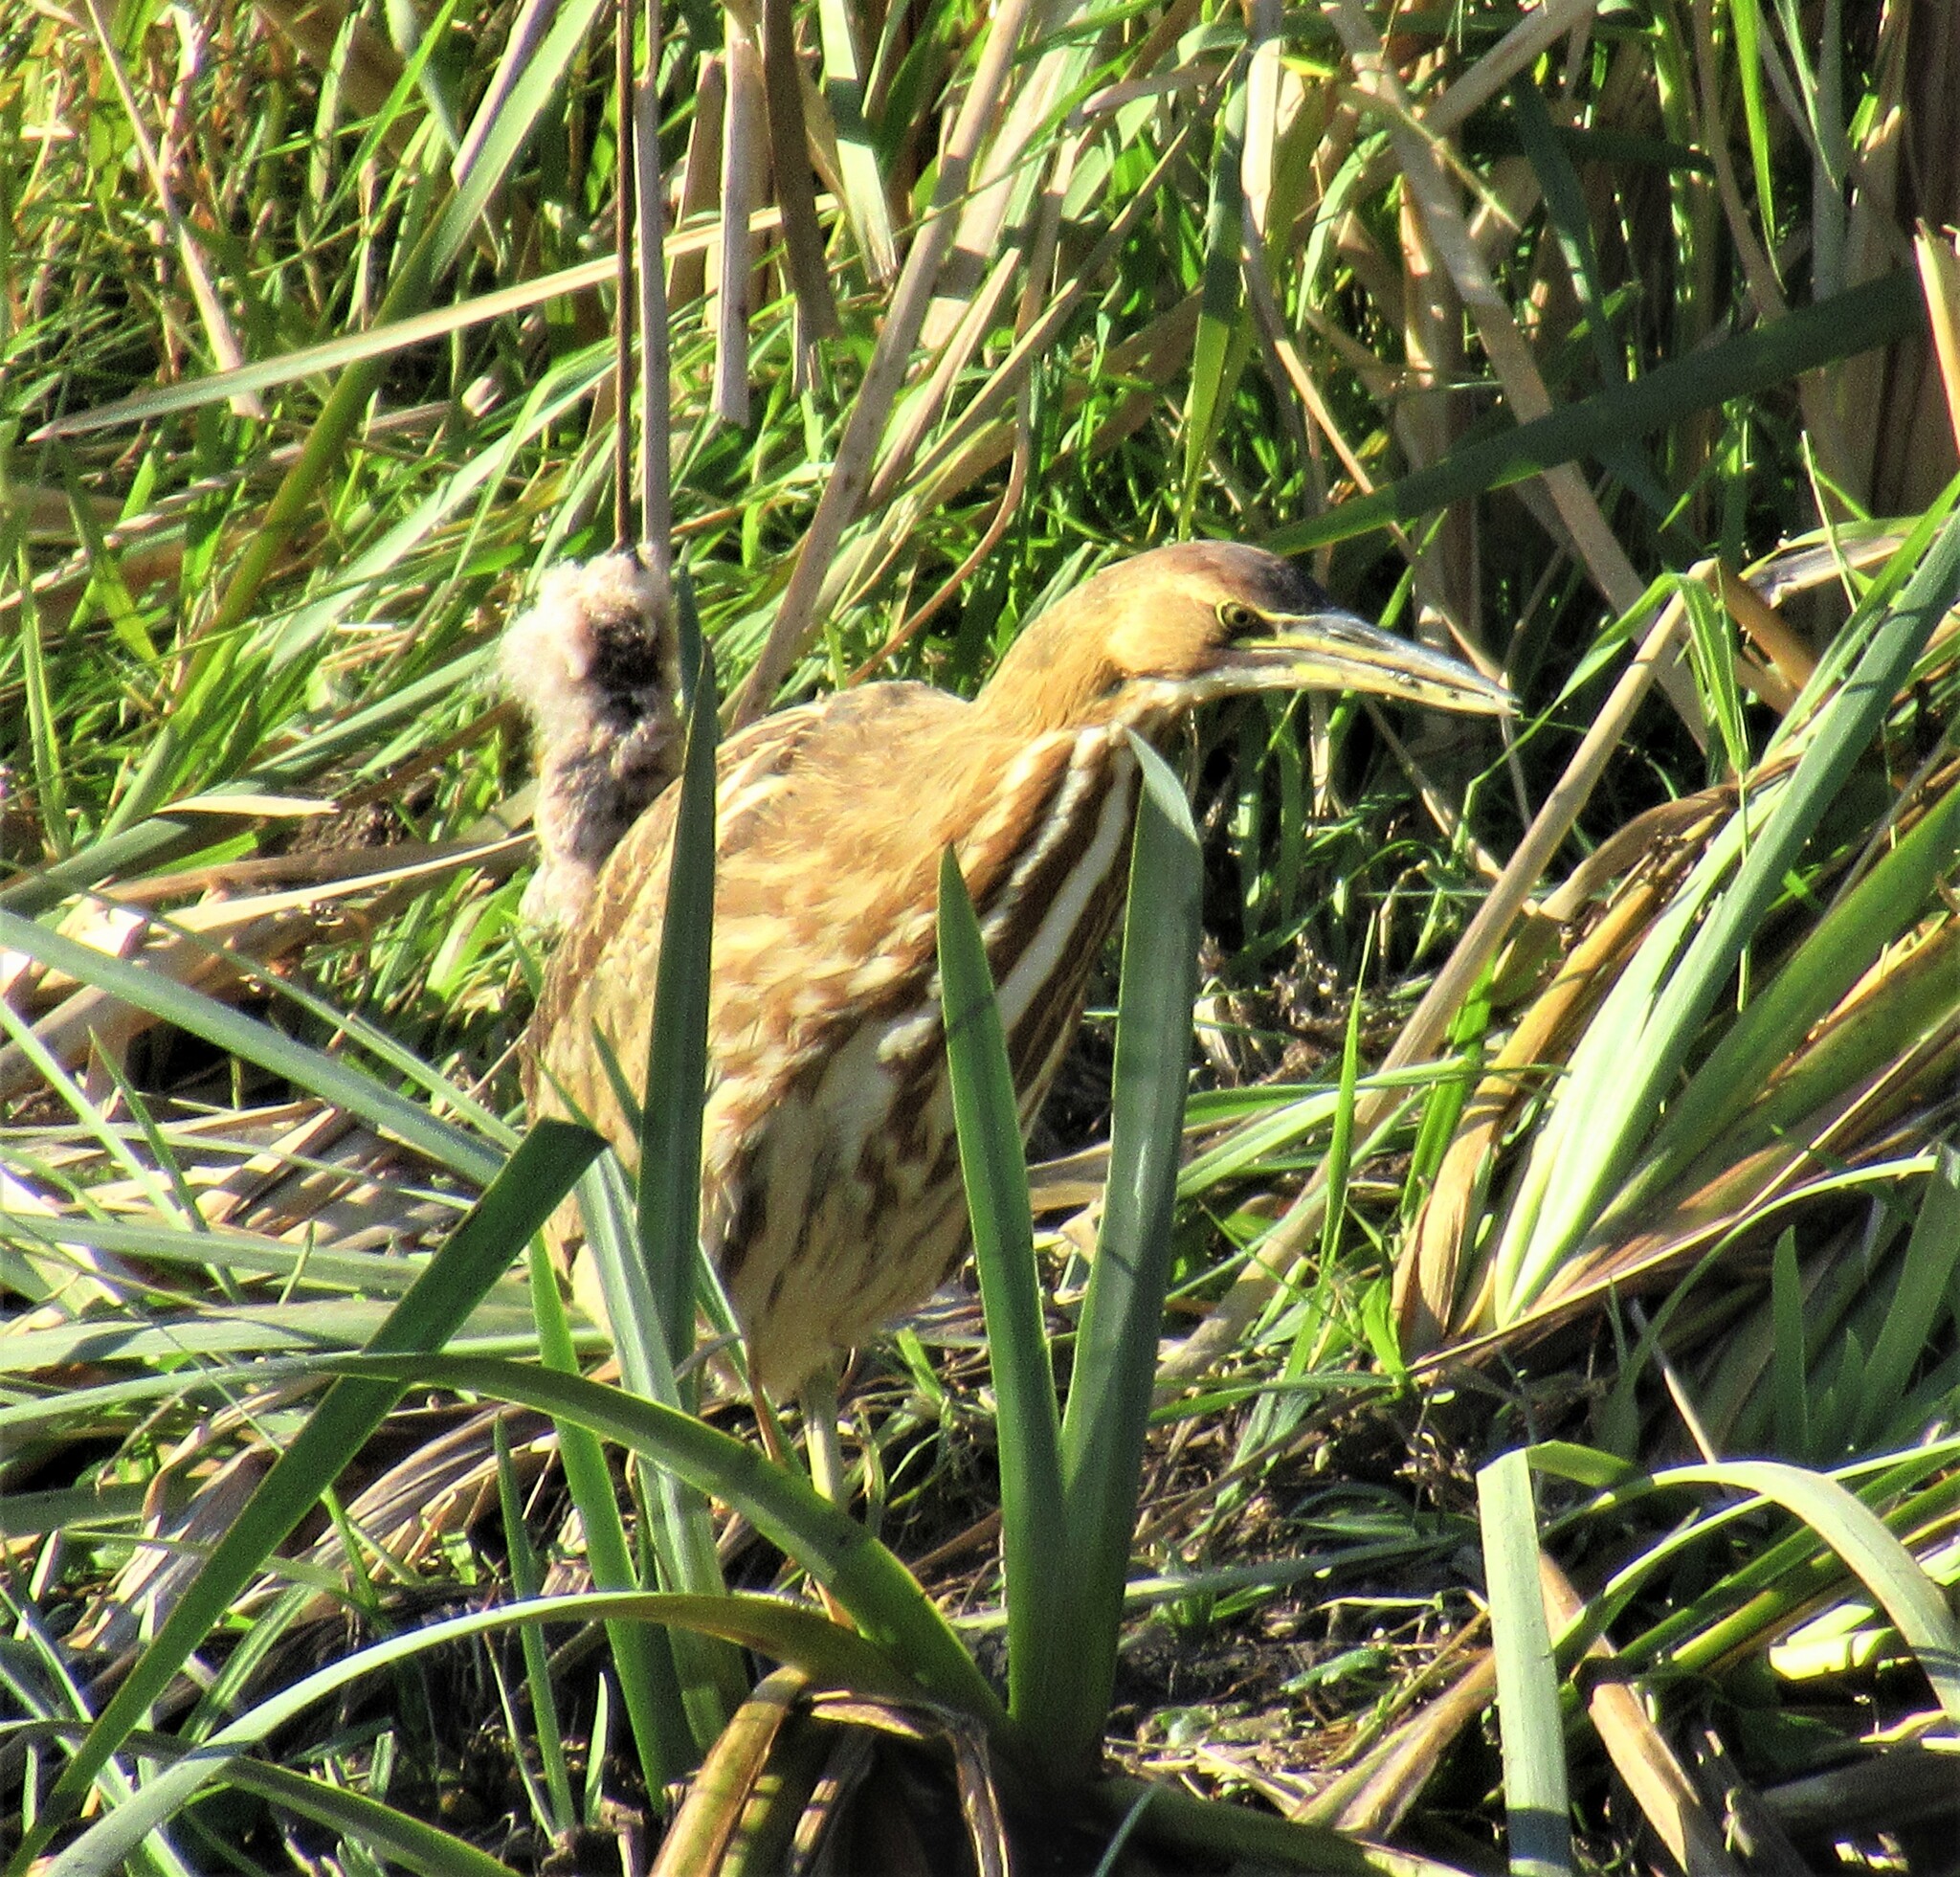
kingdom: Animalia
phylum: Chordata
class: Aves
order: Pelecaniformes
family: Ardeidae
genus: Botaurus
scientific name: Botaurus lentiginosus
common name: American bittern
